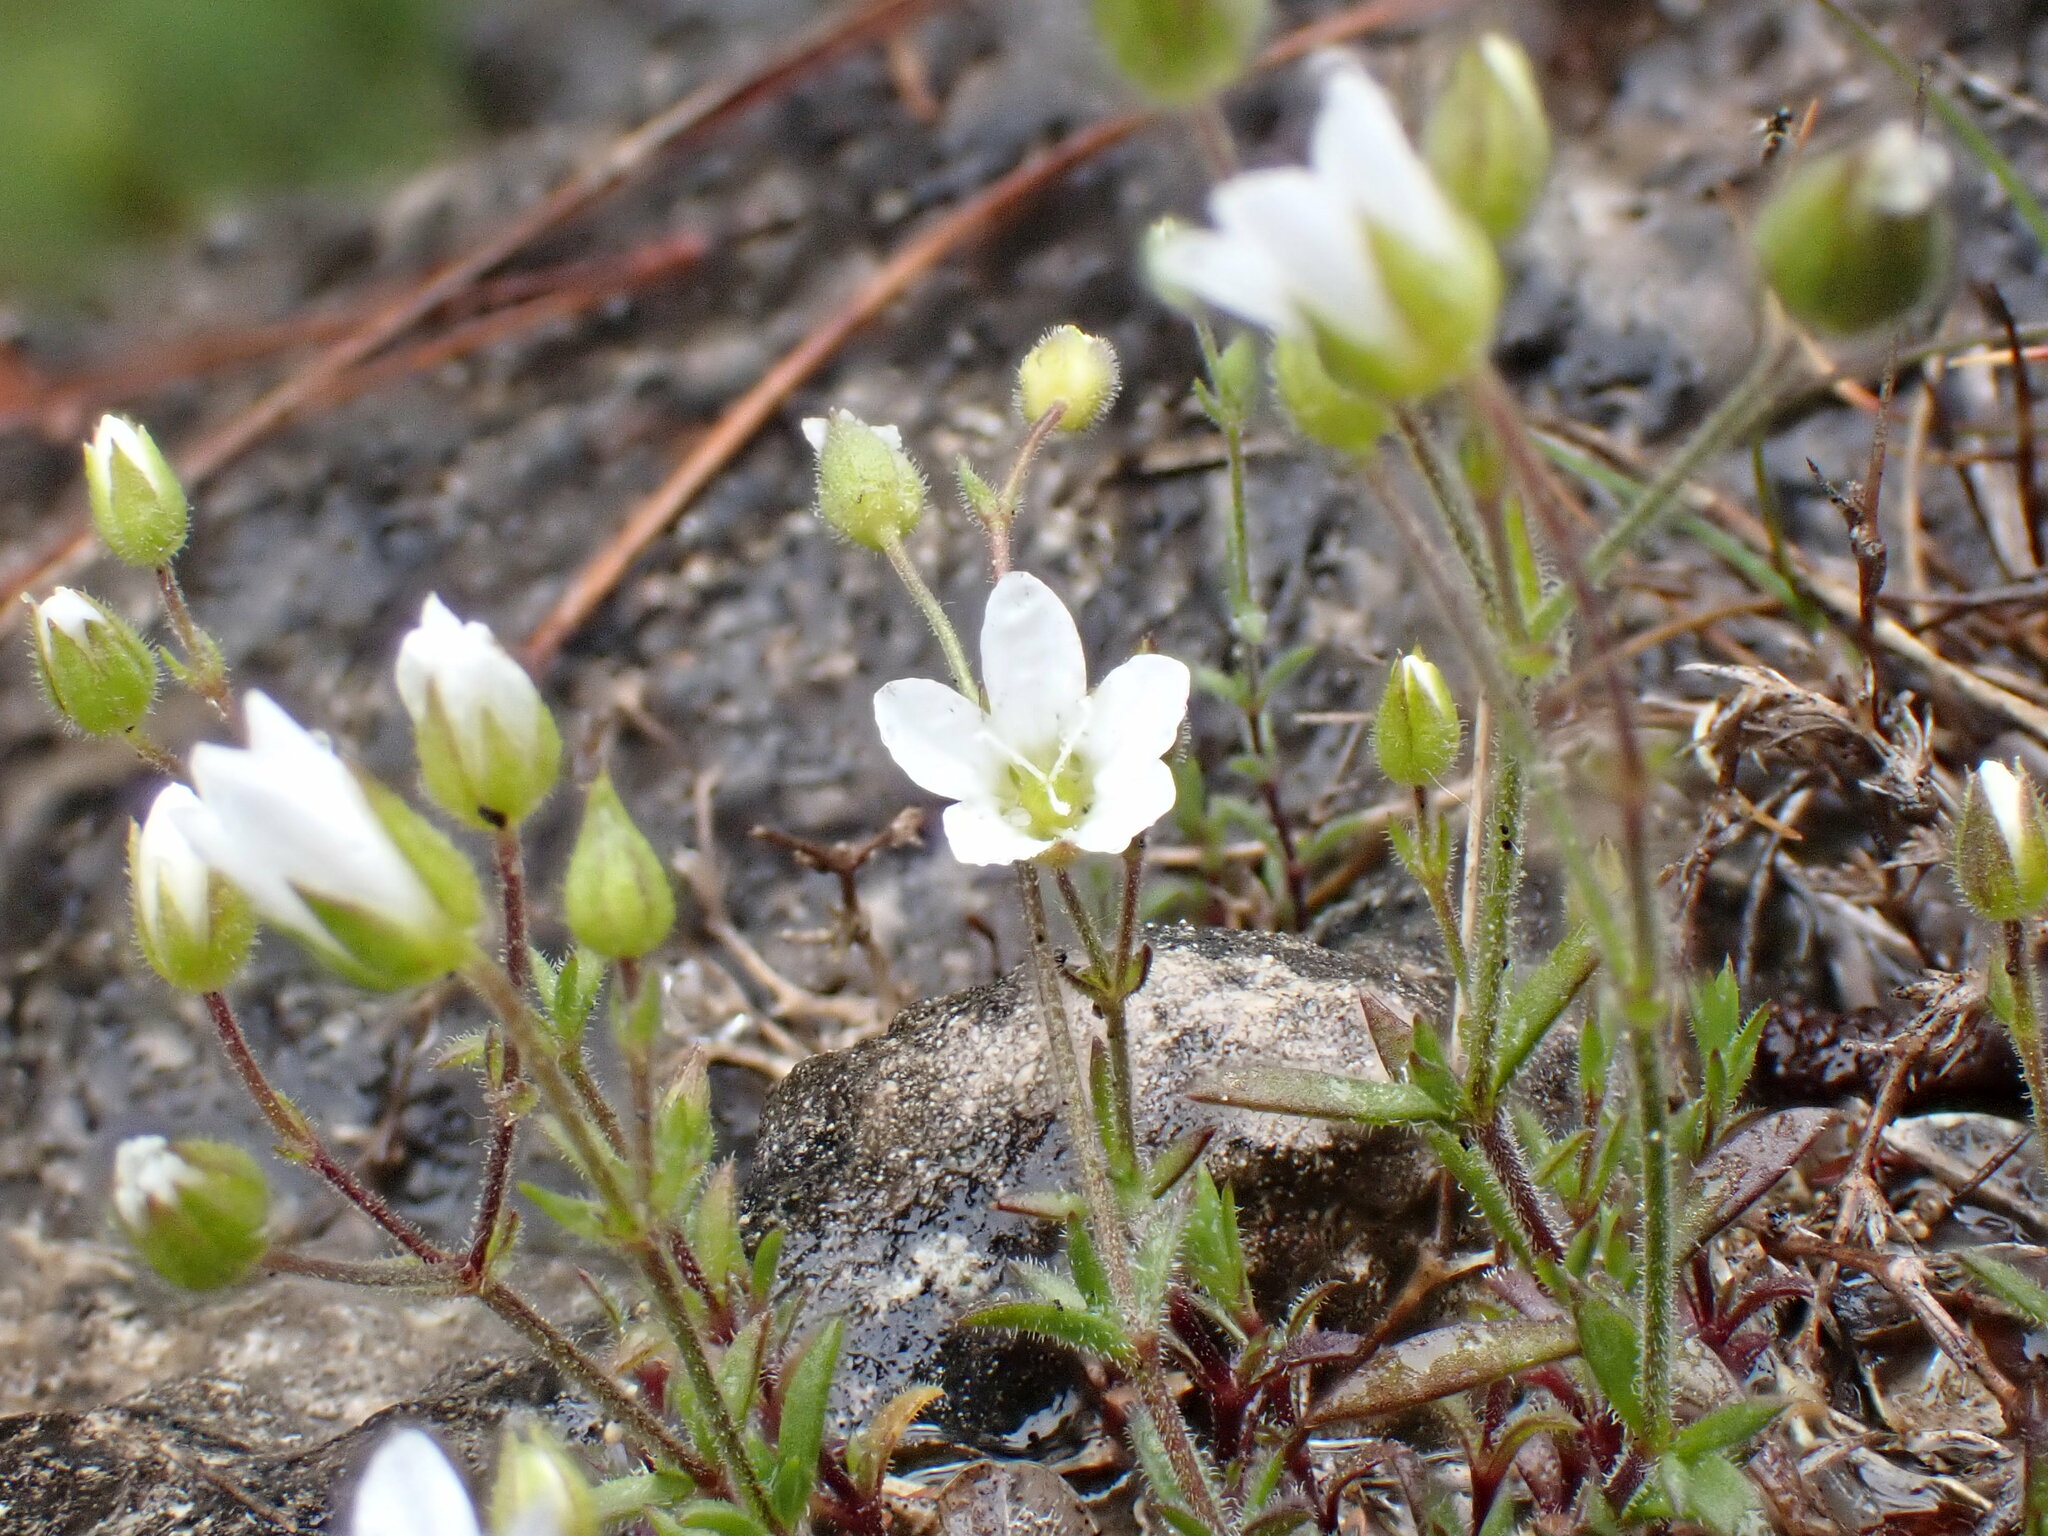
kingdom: Plantae
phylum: Tracheophyta
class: Magnoliopsida
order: Caryophyllales
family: Caryophyllaceae
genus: Arenaria
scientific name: Arenaria hispida
